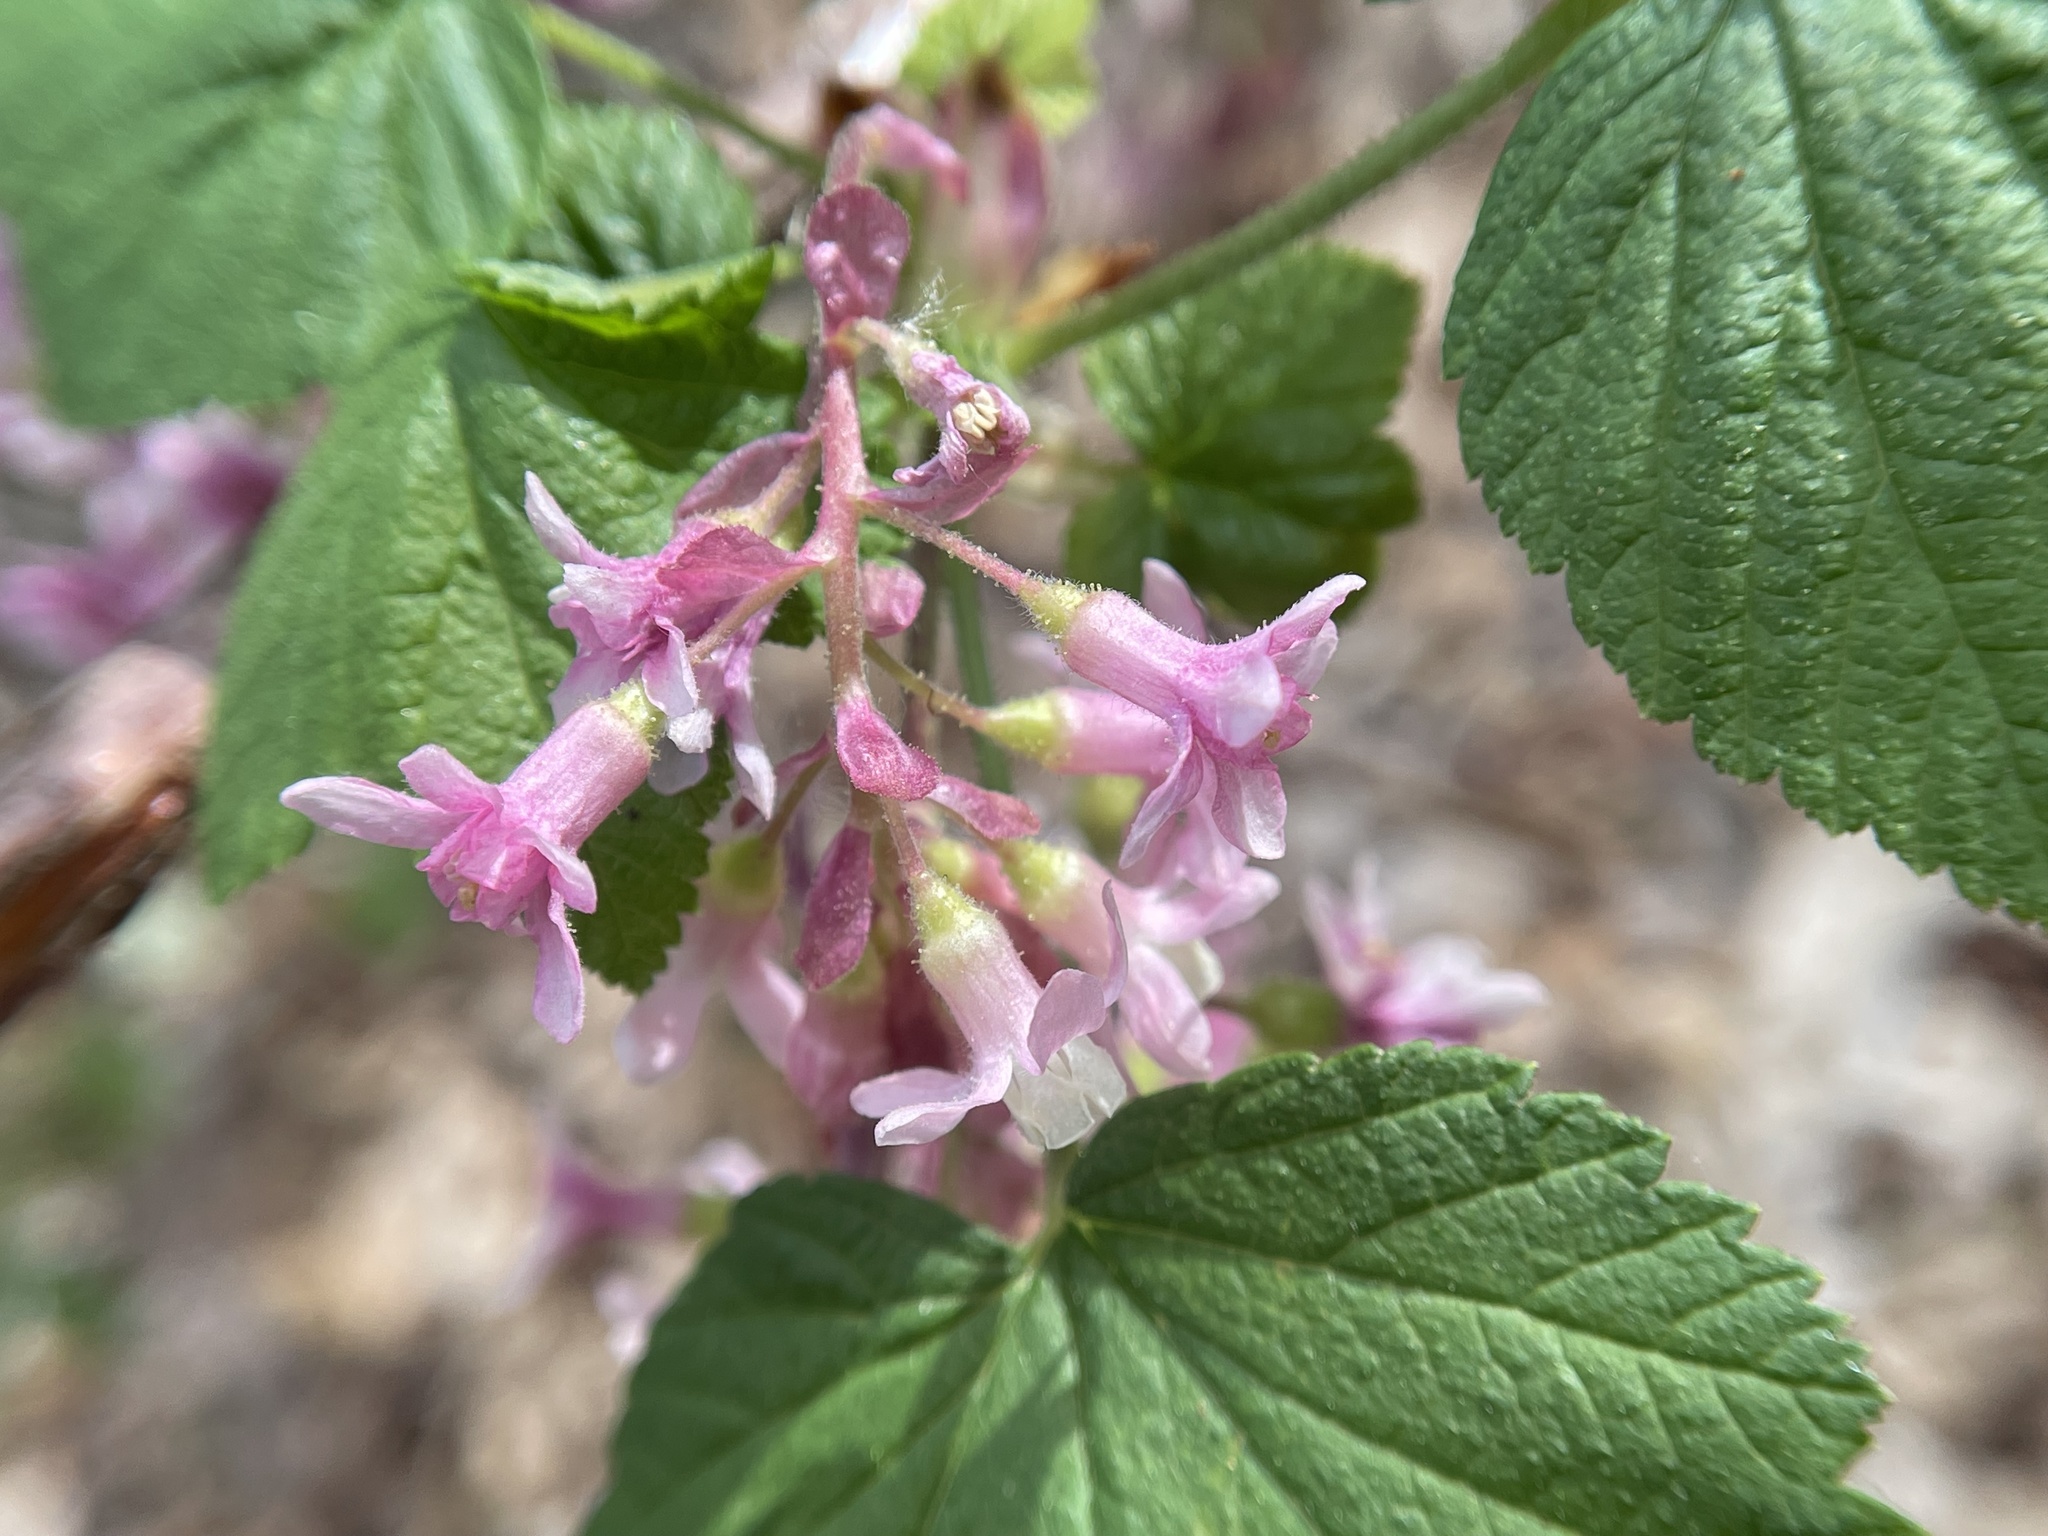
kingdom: Plantae
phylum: Tracheophyta
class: Magnoliopsida
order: Saxifragales
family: Grossulariaceae
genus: Ribes
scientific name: Ribes sanguineum
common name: Flowering currant
